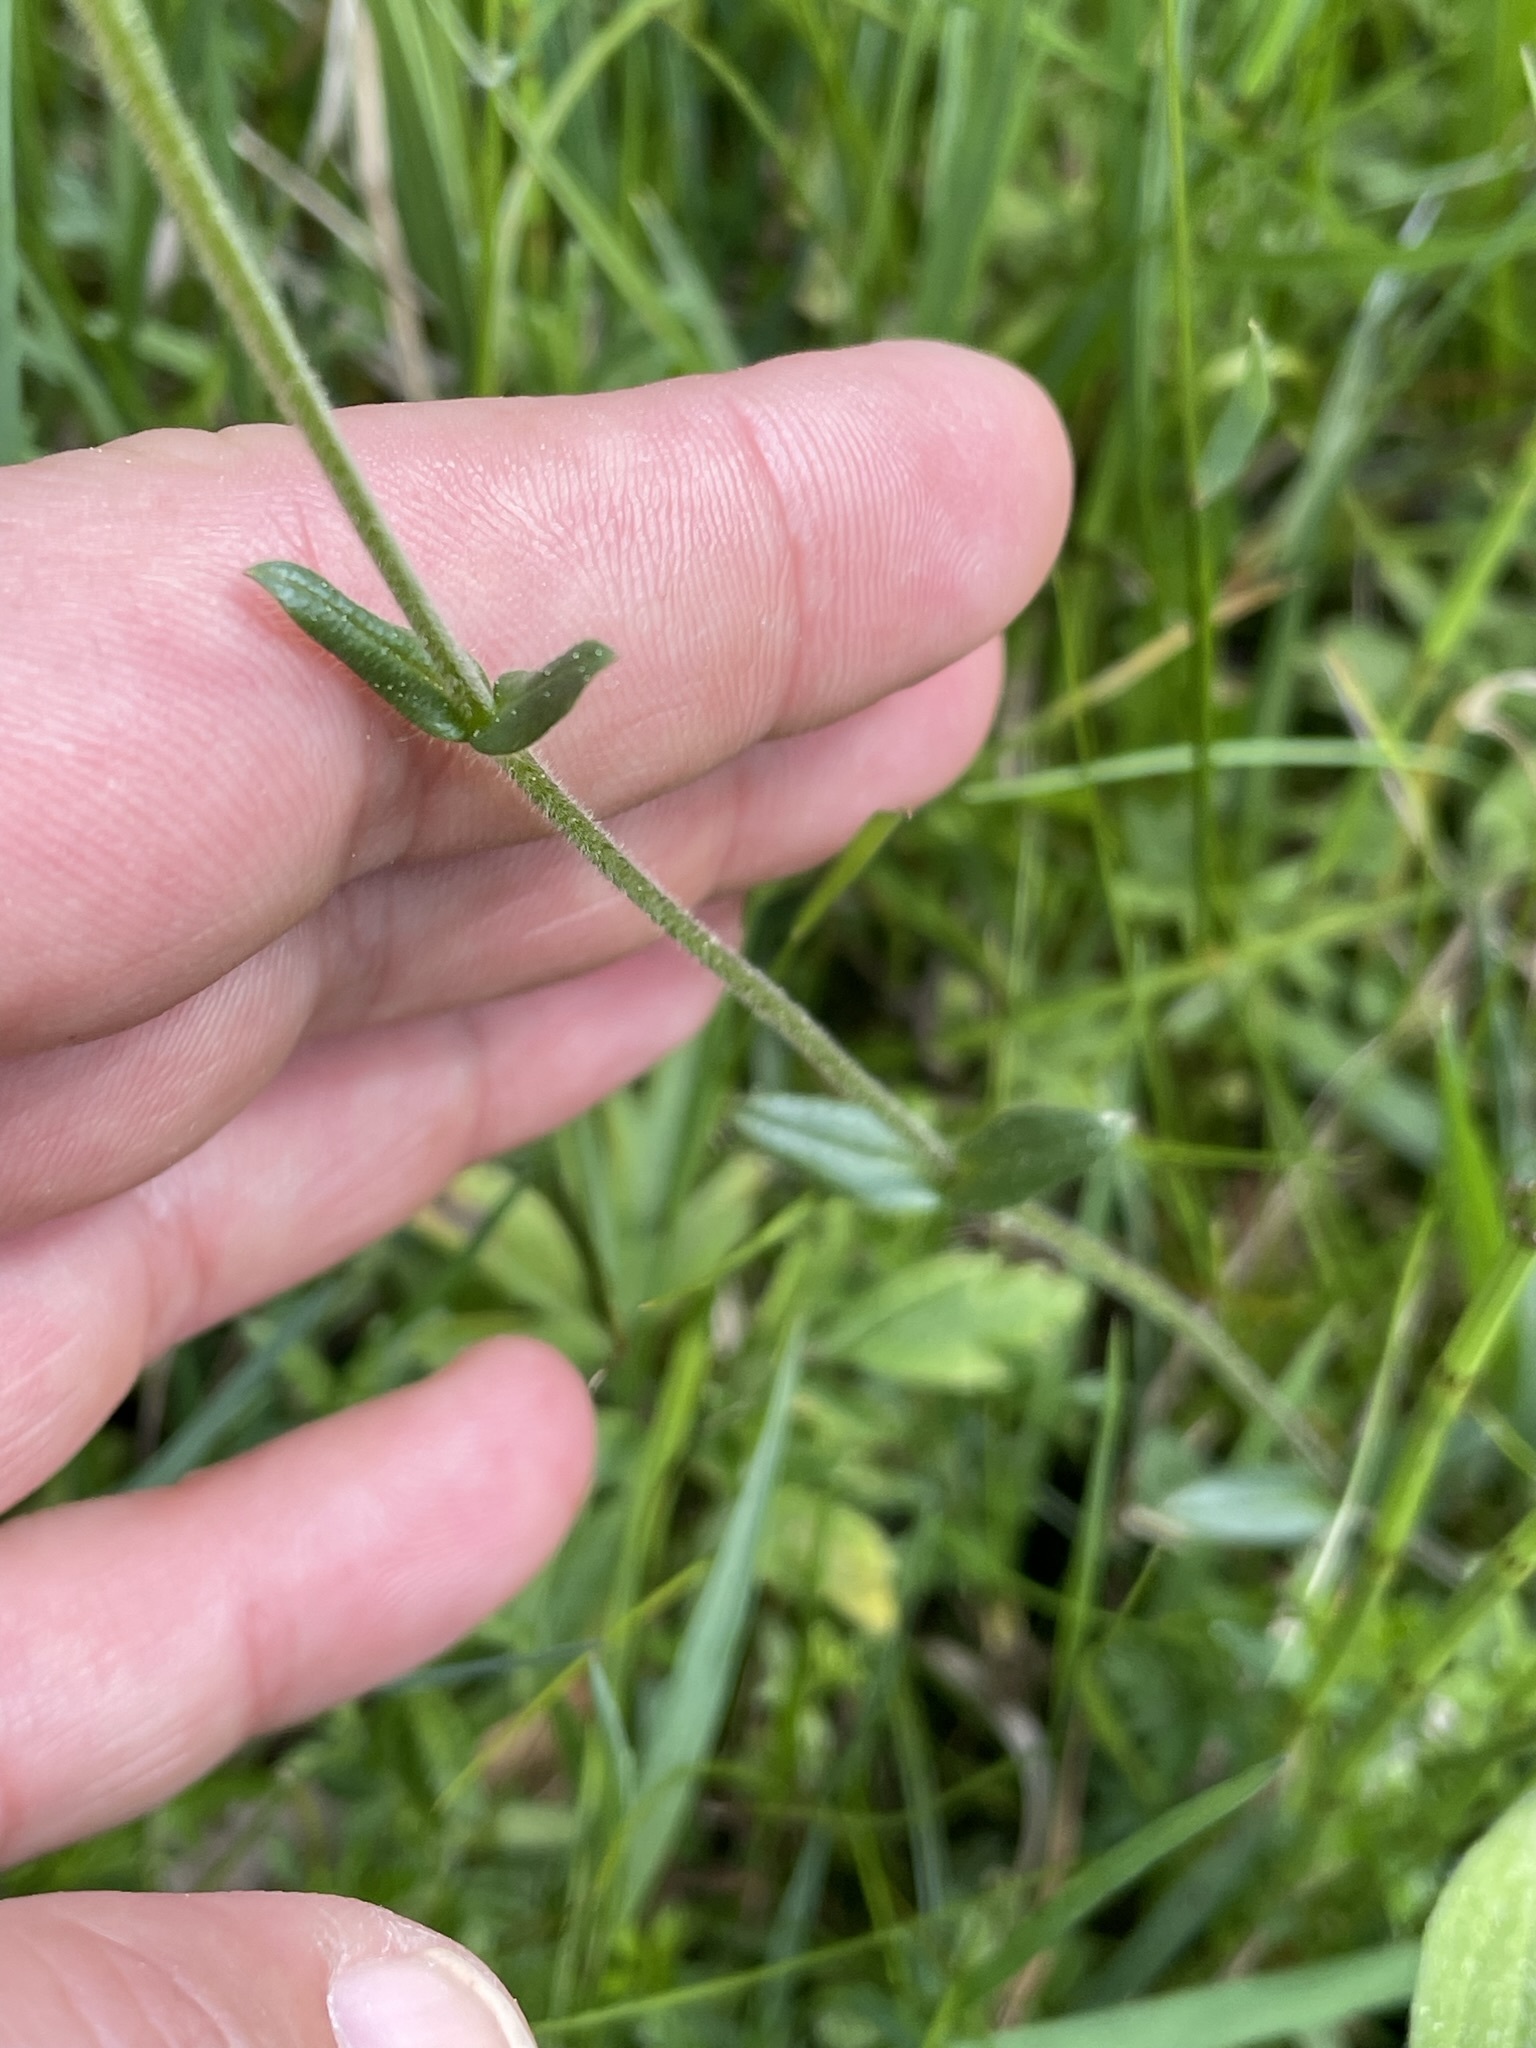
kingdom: Plantae
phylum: Tracheophyta
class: Magnoliopsida
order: Caryophyllales
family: Caryophyllaceae
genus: Cerastium
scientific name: Cerastium holosteoides
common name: Big chickweed
